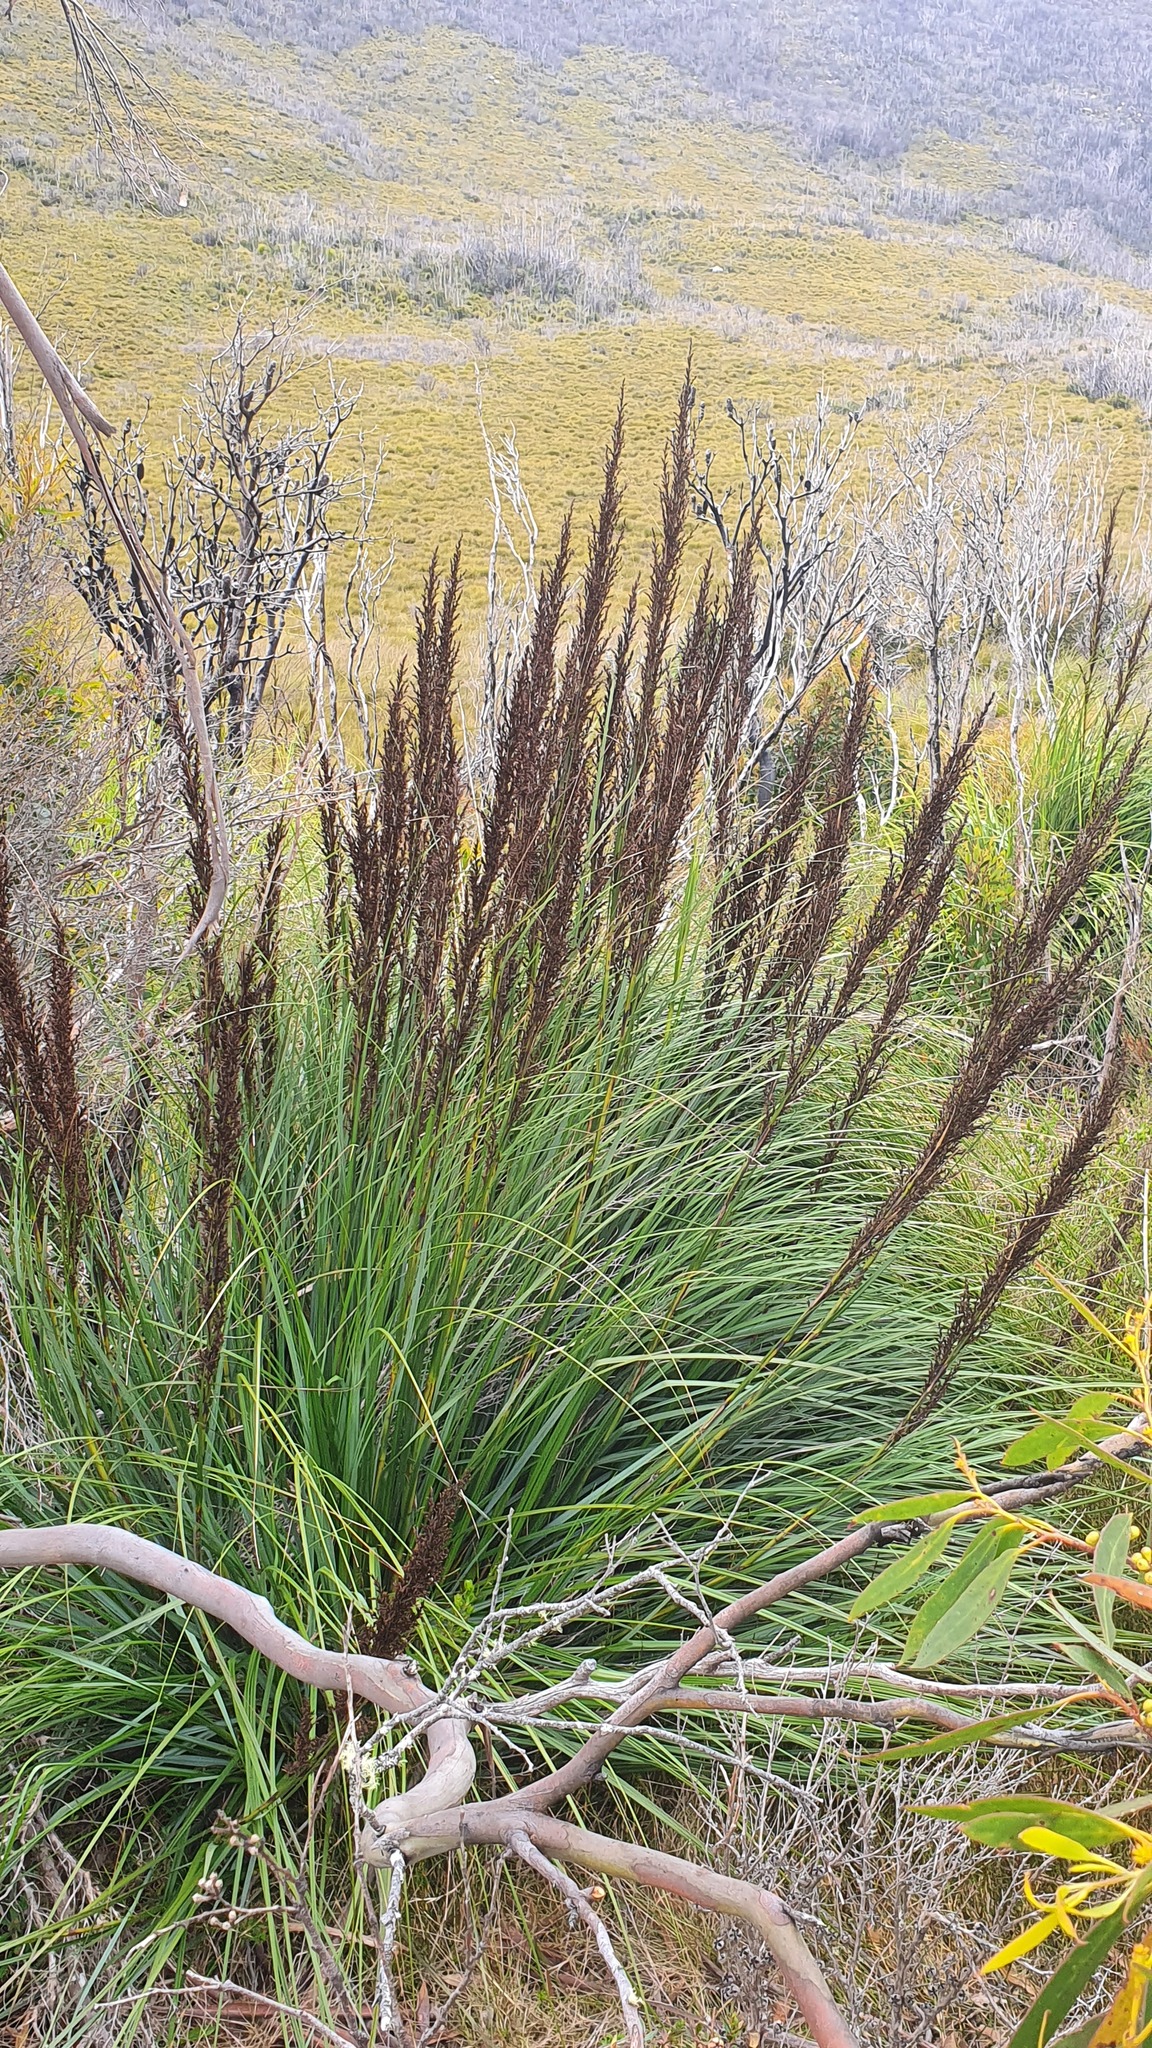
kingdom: Plantae
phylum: Tracheophyta
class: Liliopsida
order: Poales
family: Cyperaceae
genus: Gahnia
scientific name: Gahnia grandis
